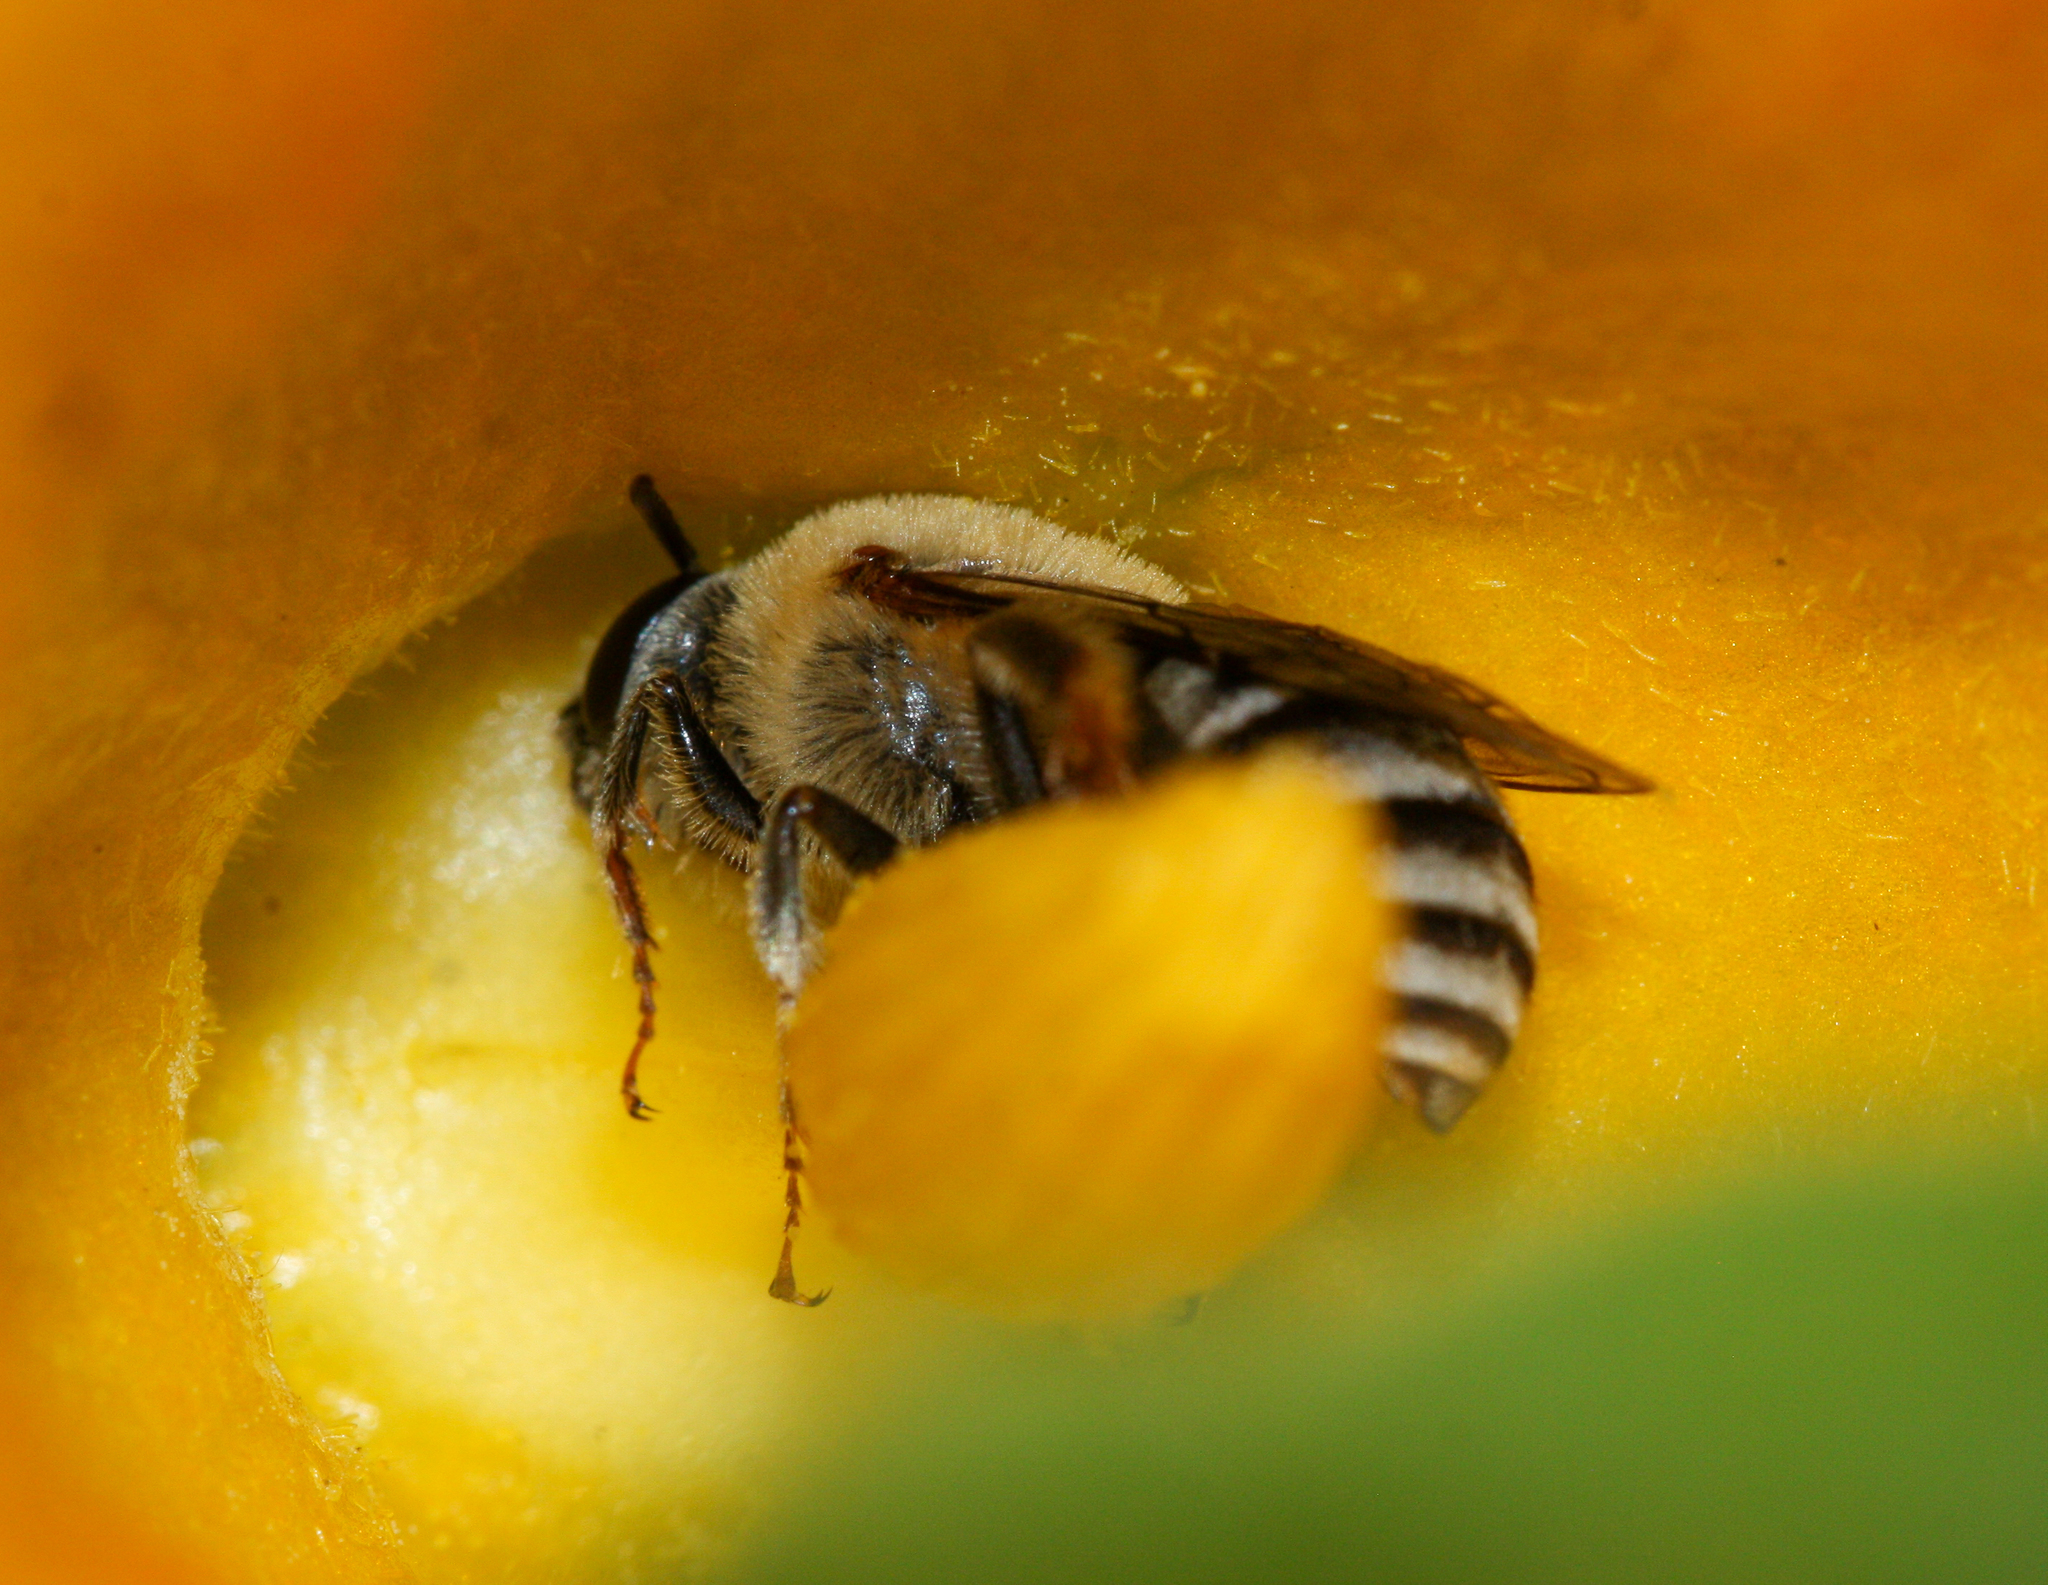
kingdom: Animalia
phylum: Arthropoda
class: Insecta
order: Hymenoptera
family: Apidae
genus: Peponapis
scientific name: Peponapis pruinosa
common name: Pruinose squash bee
